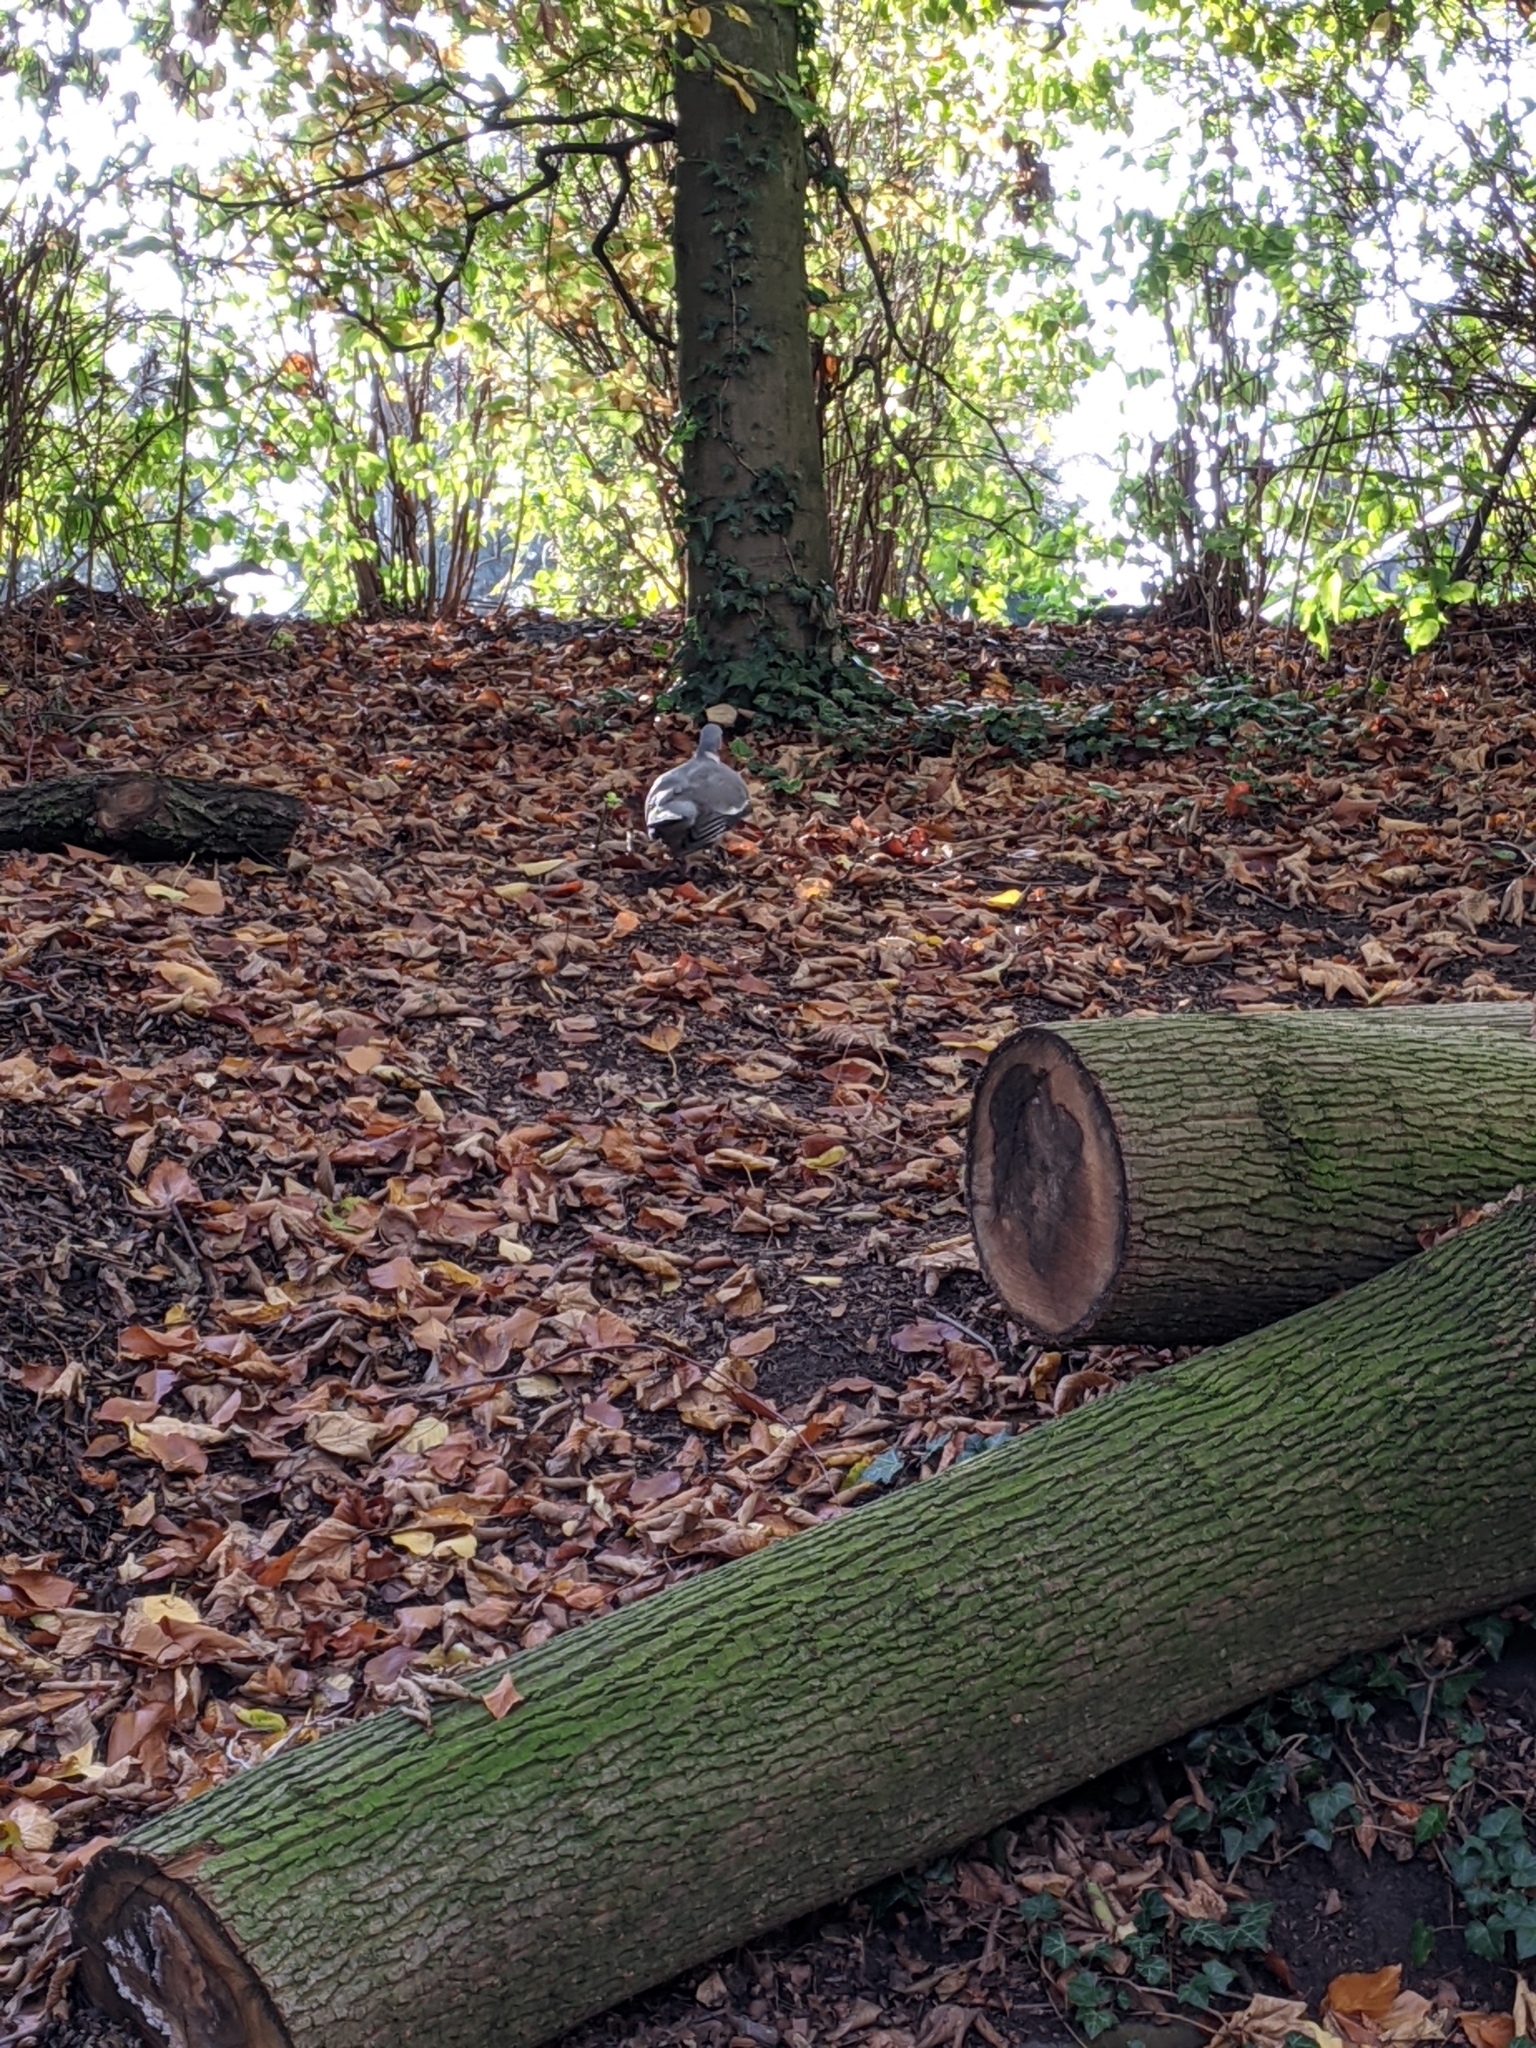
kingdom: Animalia
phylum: Chordata
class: Aves
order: Columbiformes
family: Columbidae
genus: Columba
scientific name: Columba palumbus
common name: Common wood pigeon
